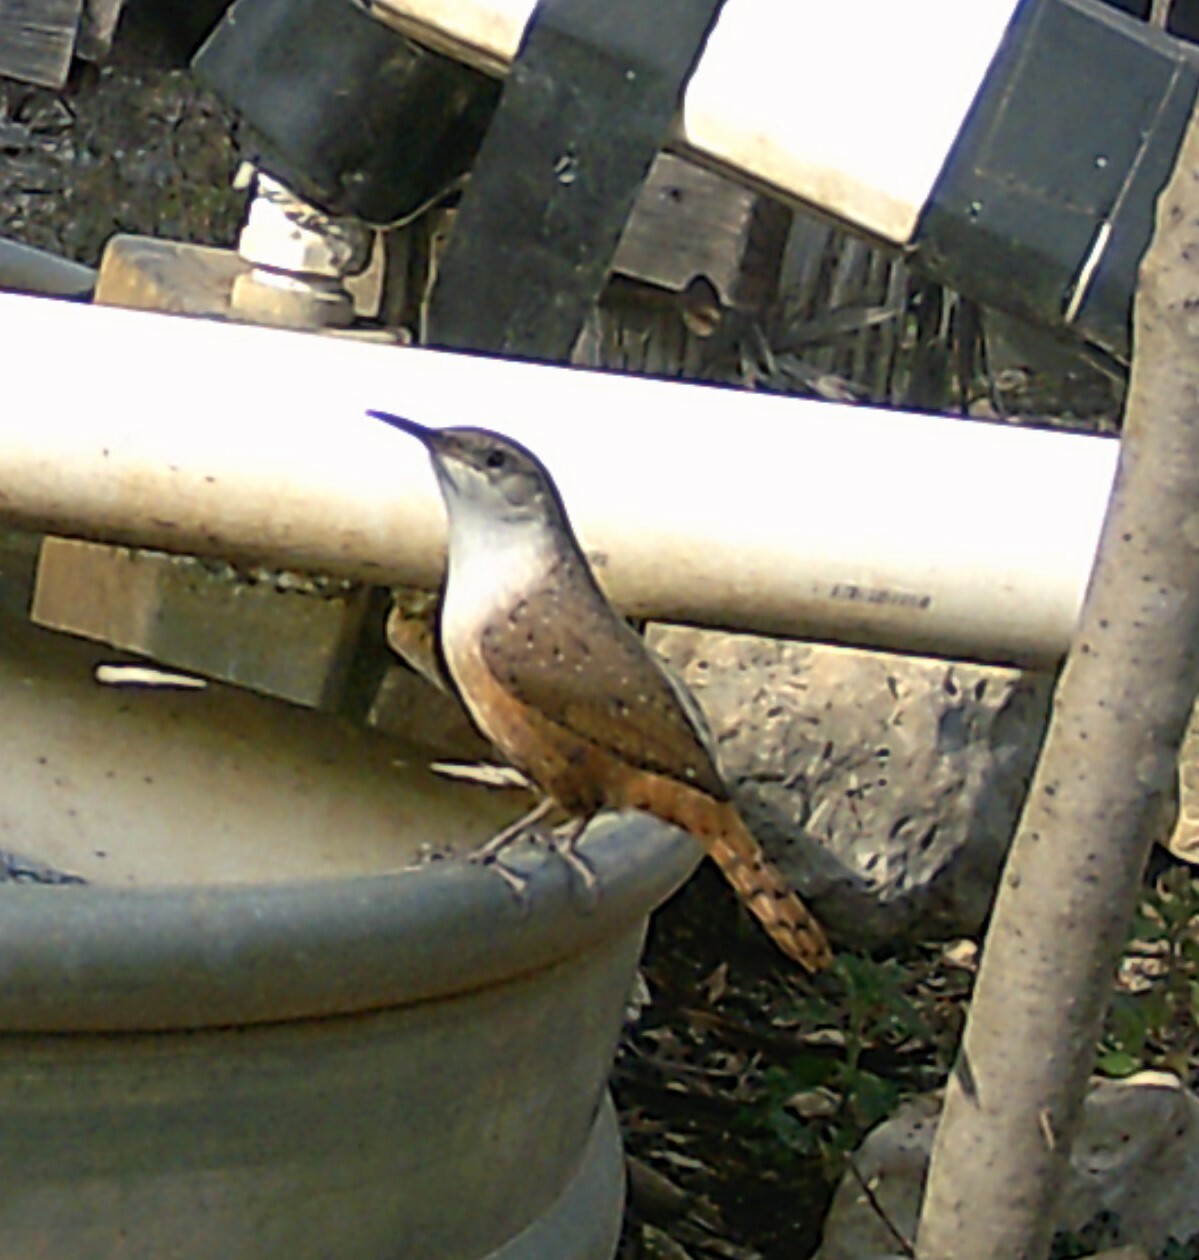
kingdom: Animalia
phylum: Chordata
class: Aves
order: Passeriformes
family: Troglodytidae
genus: Catherpes
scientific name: Catherpes mexicanus
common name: Canyon wren
